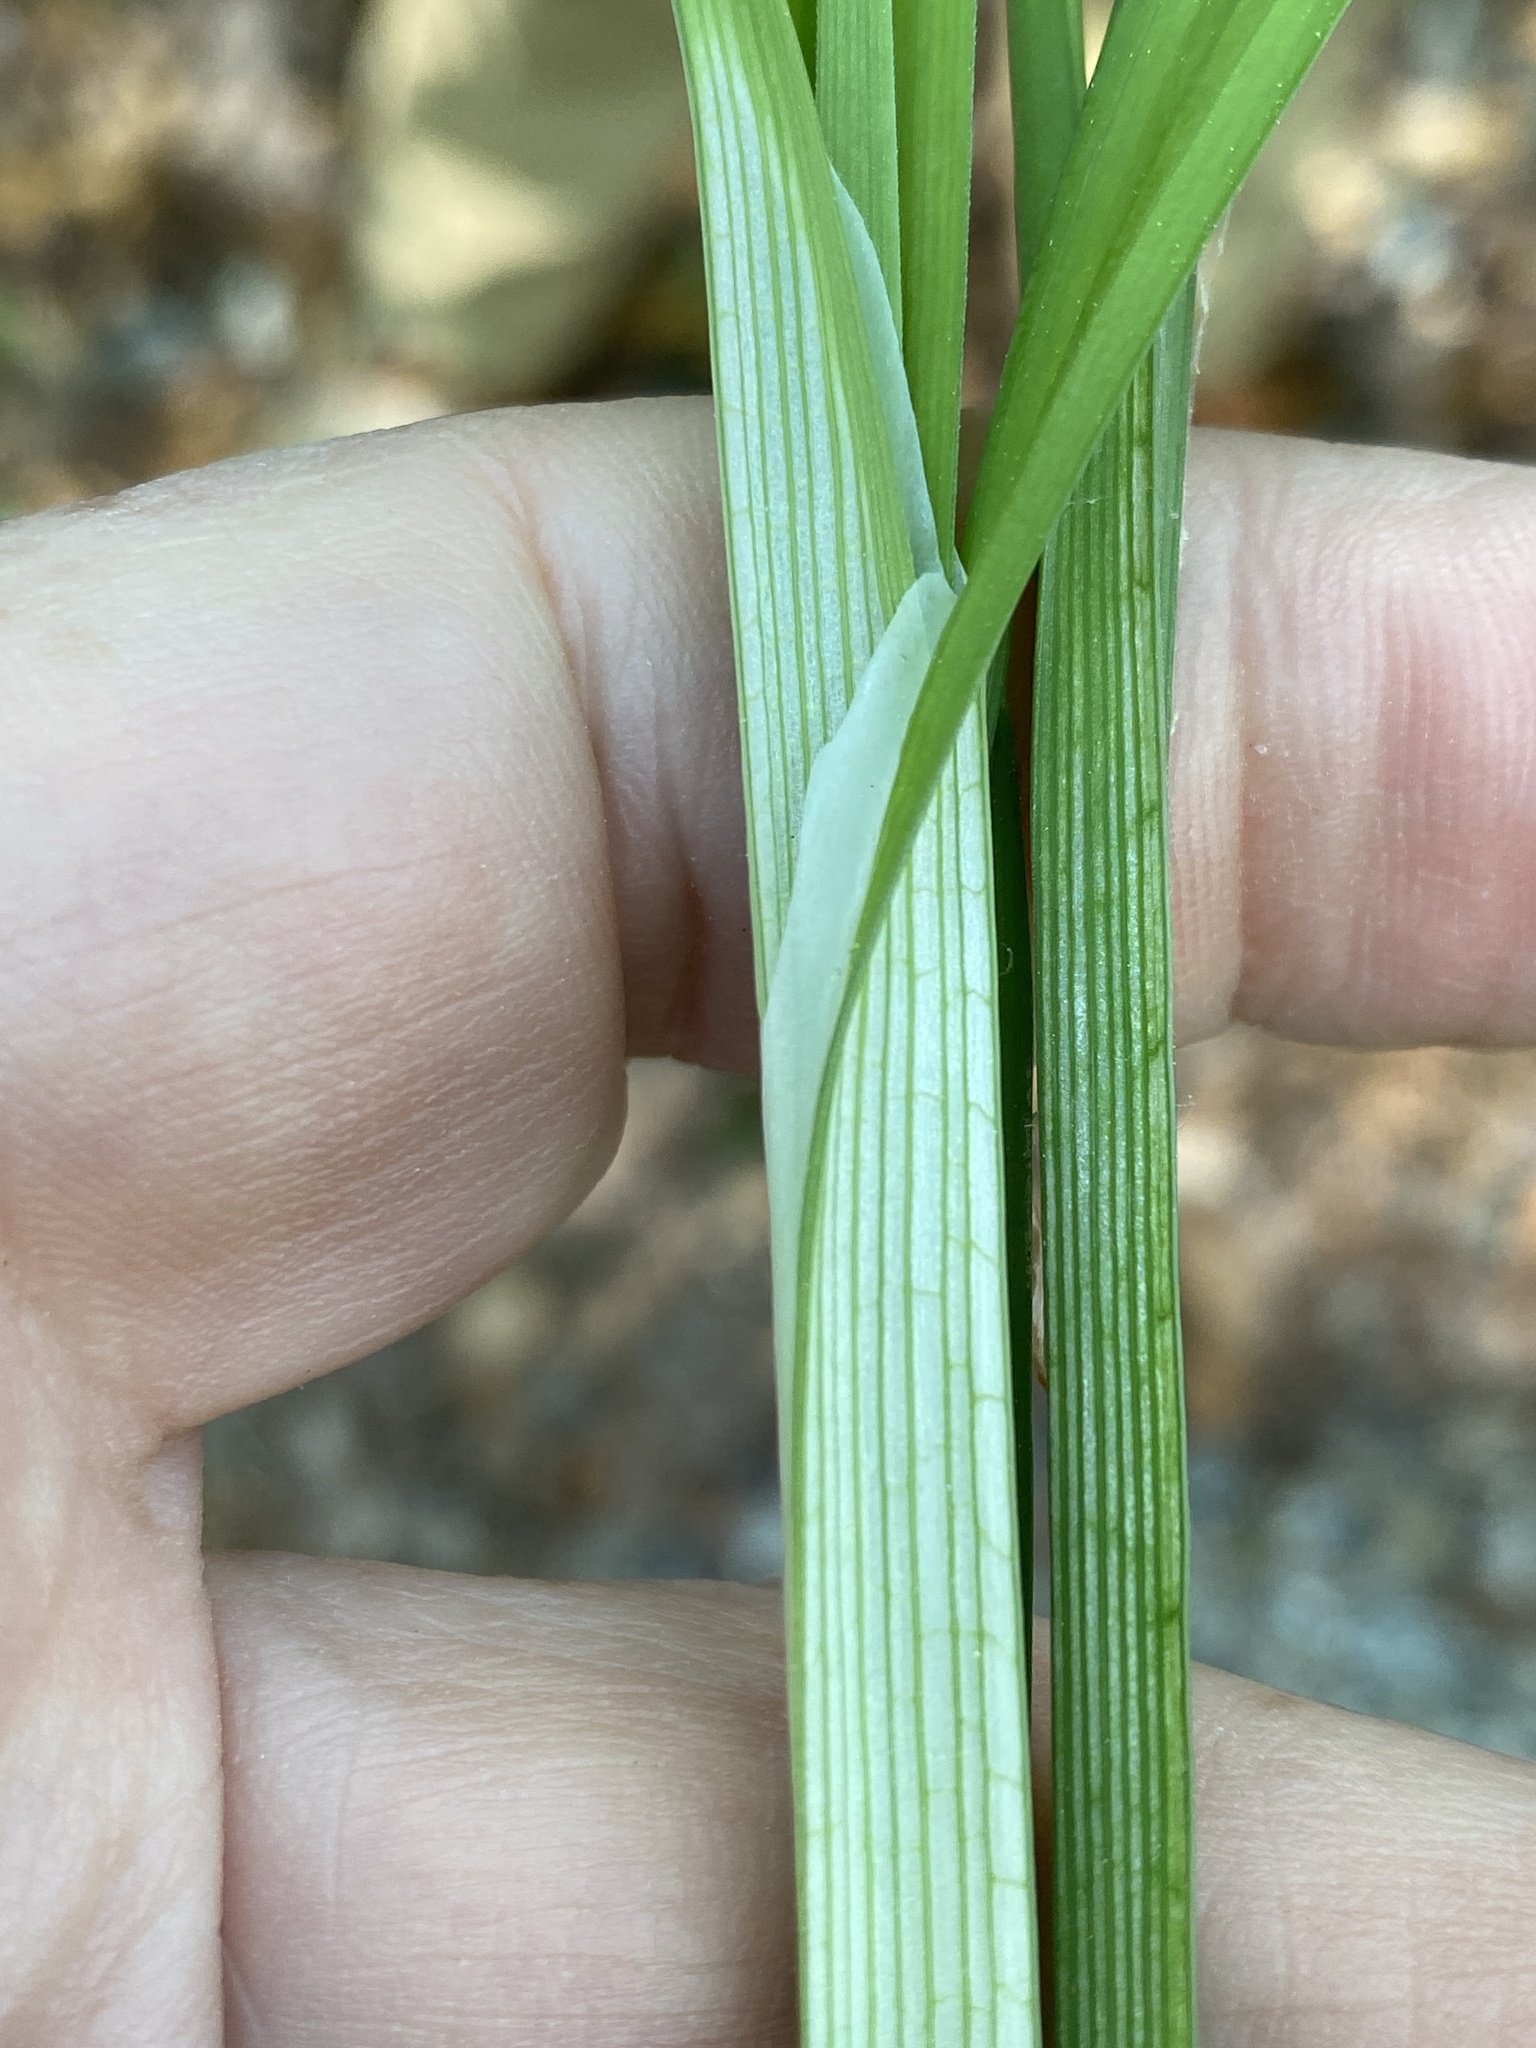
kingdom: Plantae
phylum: Tracheophyta
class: Liliopsida
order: Poales
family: Cyperaceae
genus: Carex
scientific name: Carex radfordii
